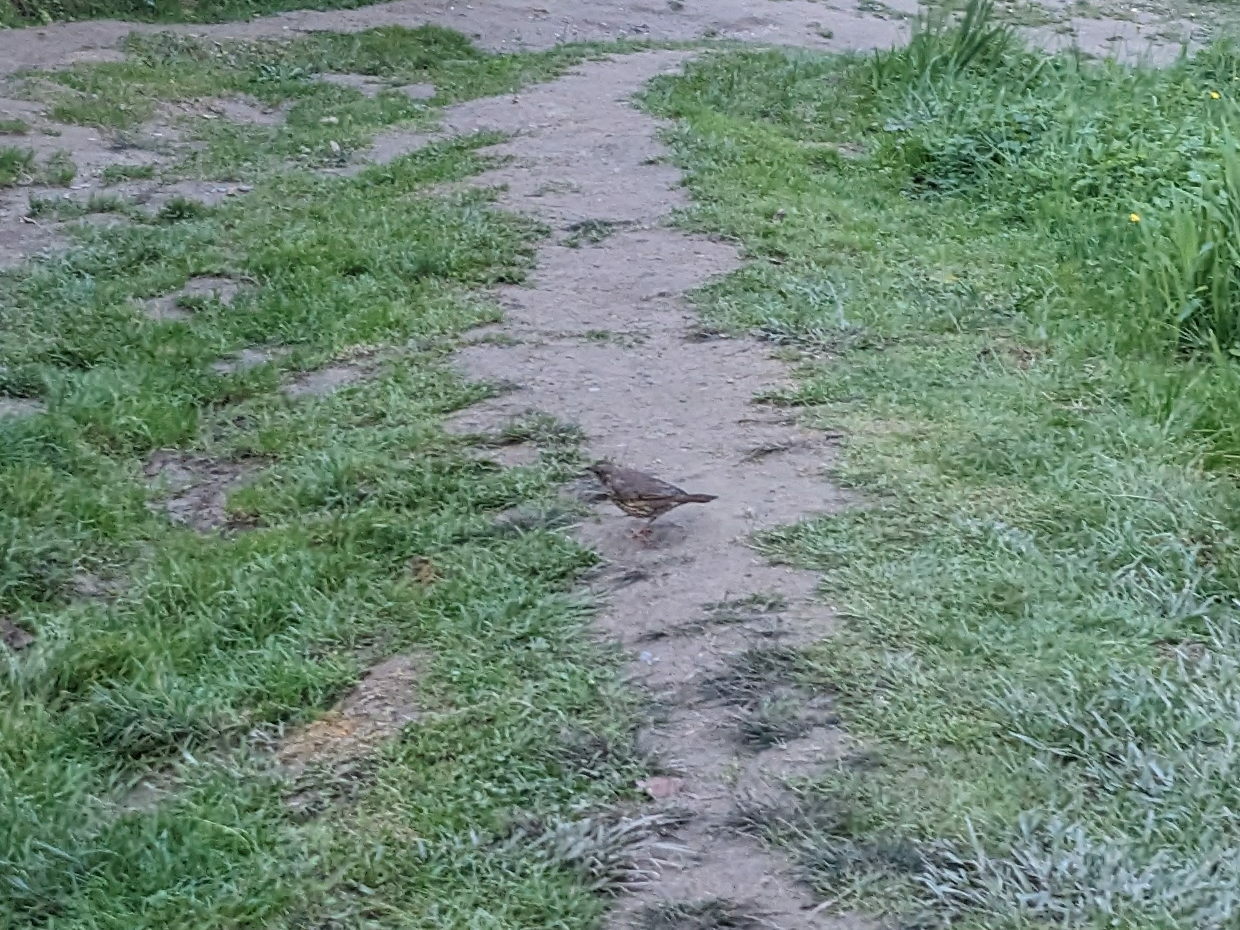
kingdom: Animalia
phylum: Chordata
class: Aves
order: Passeriformes
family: Turdidae
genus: Turdus
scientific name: Turdus philomelos
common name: Song thrush
